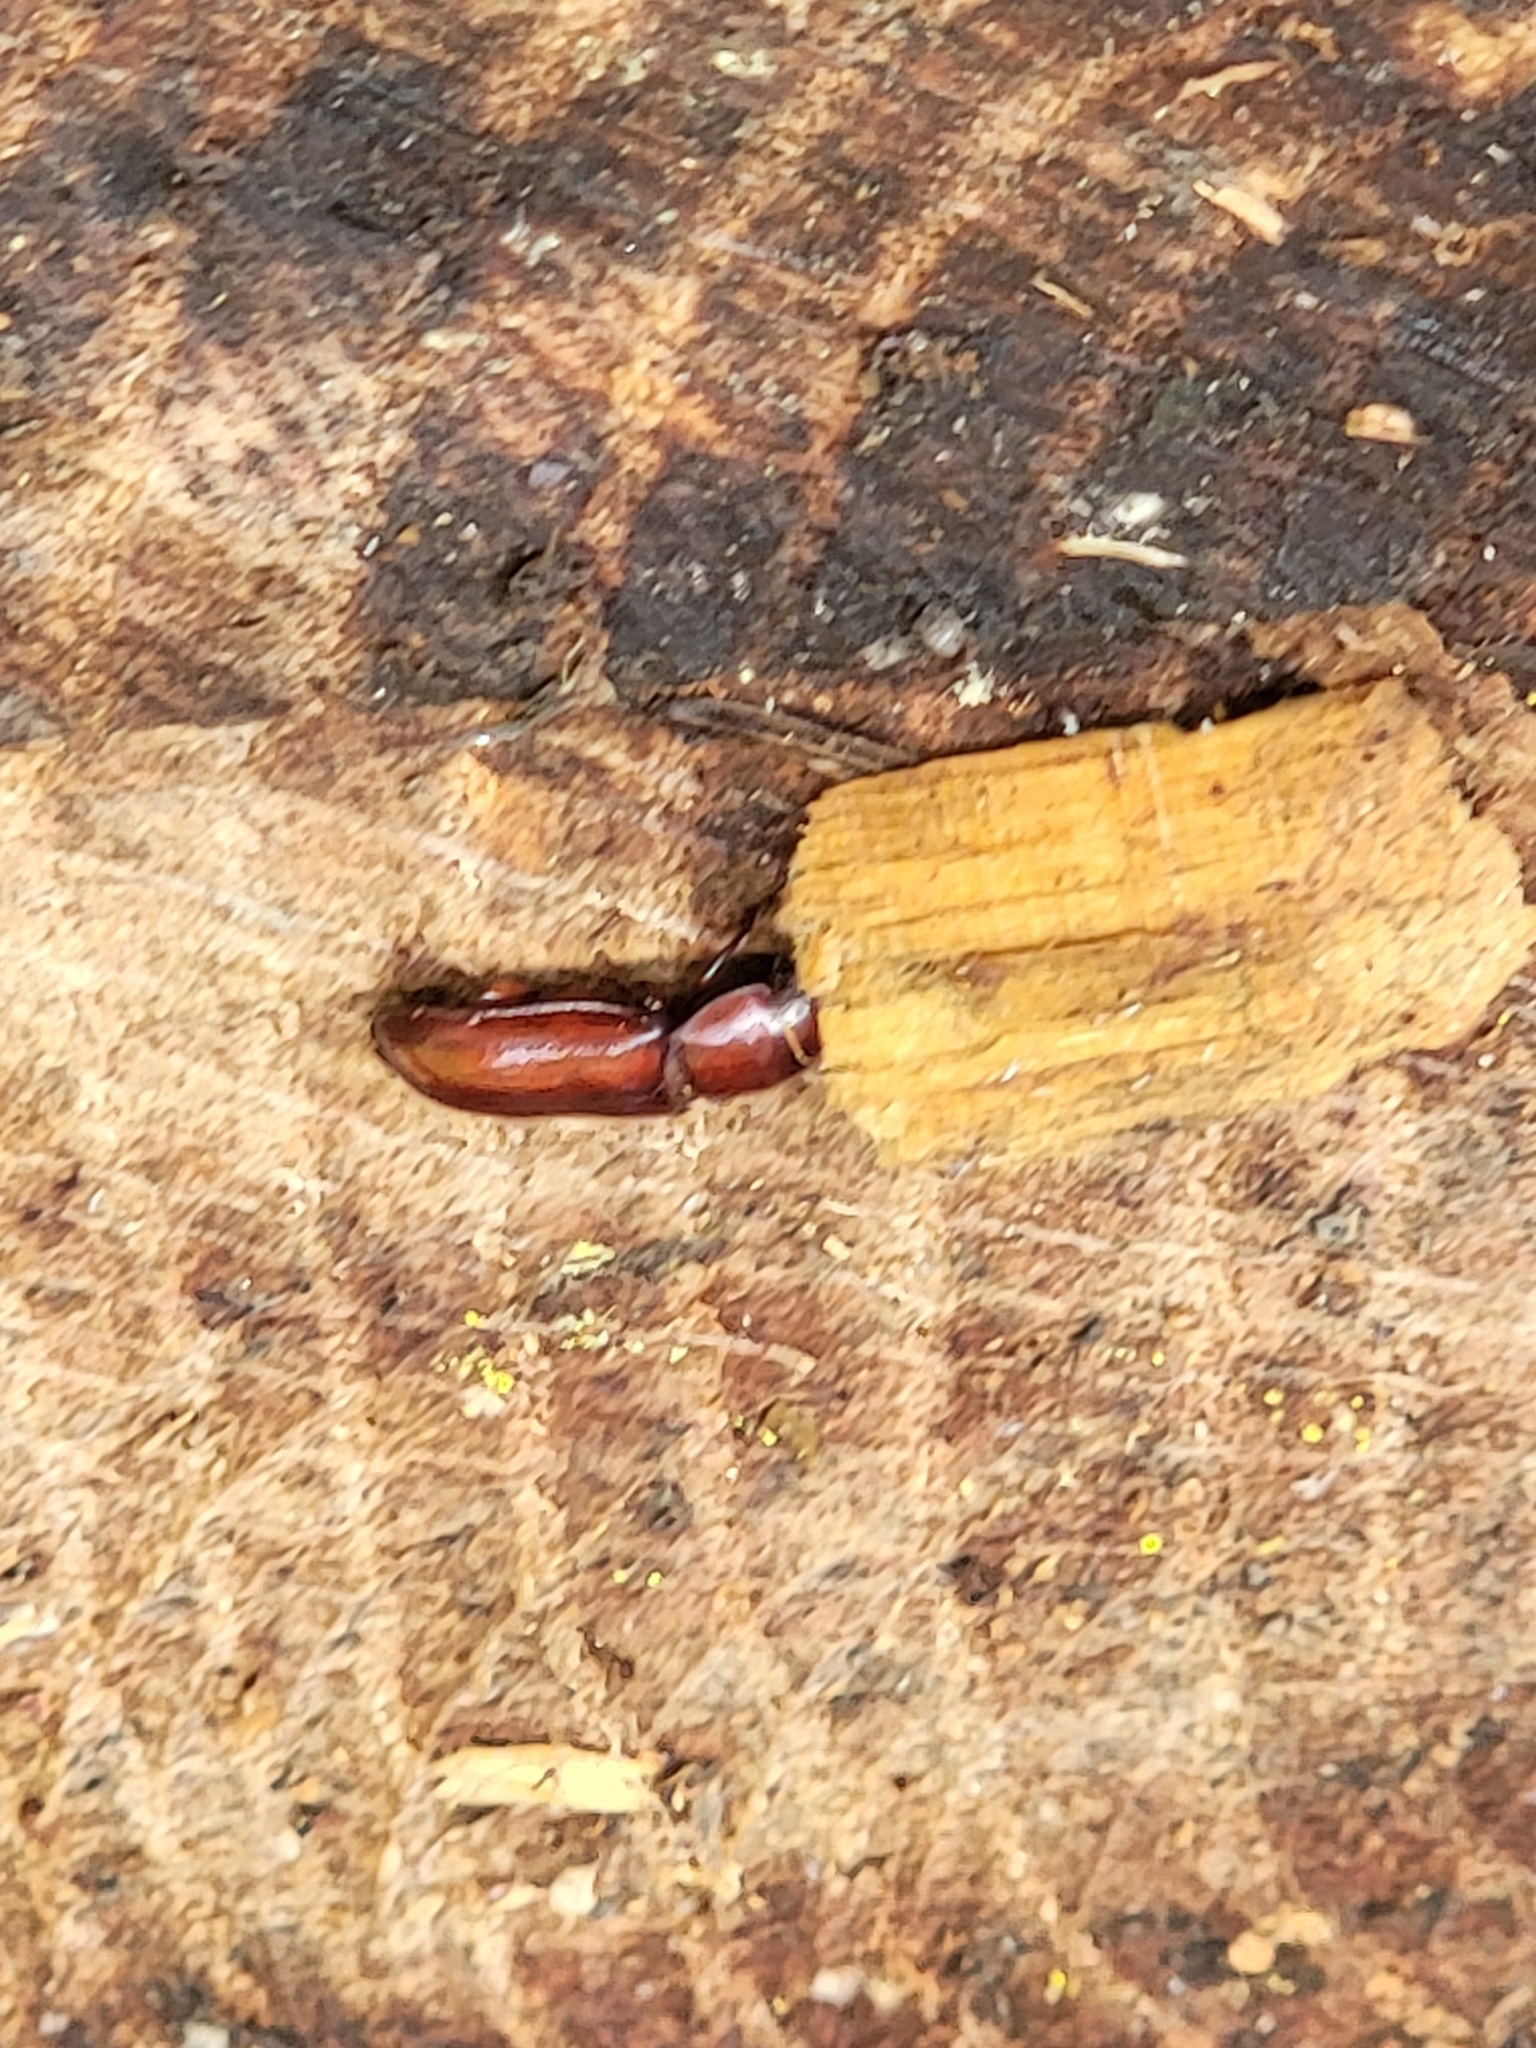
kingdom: Animalia
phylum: Arthropoda
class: Insecta
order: Coleoptera
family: Cerambycidae
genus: Neandra
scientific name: Neandra brunnea
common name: Pole borer
